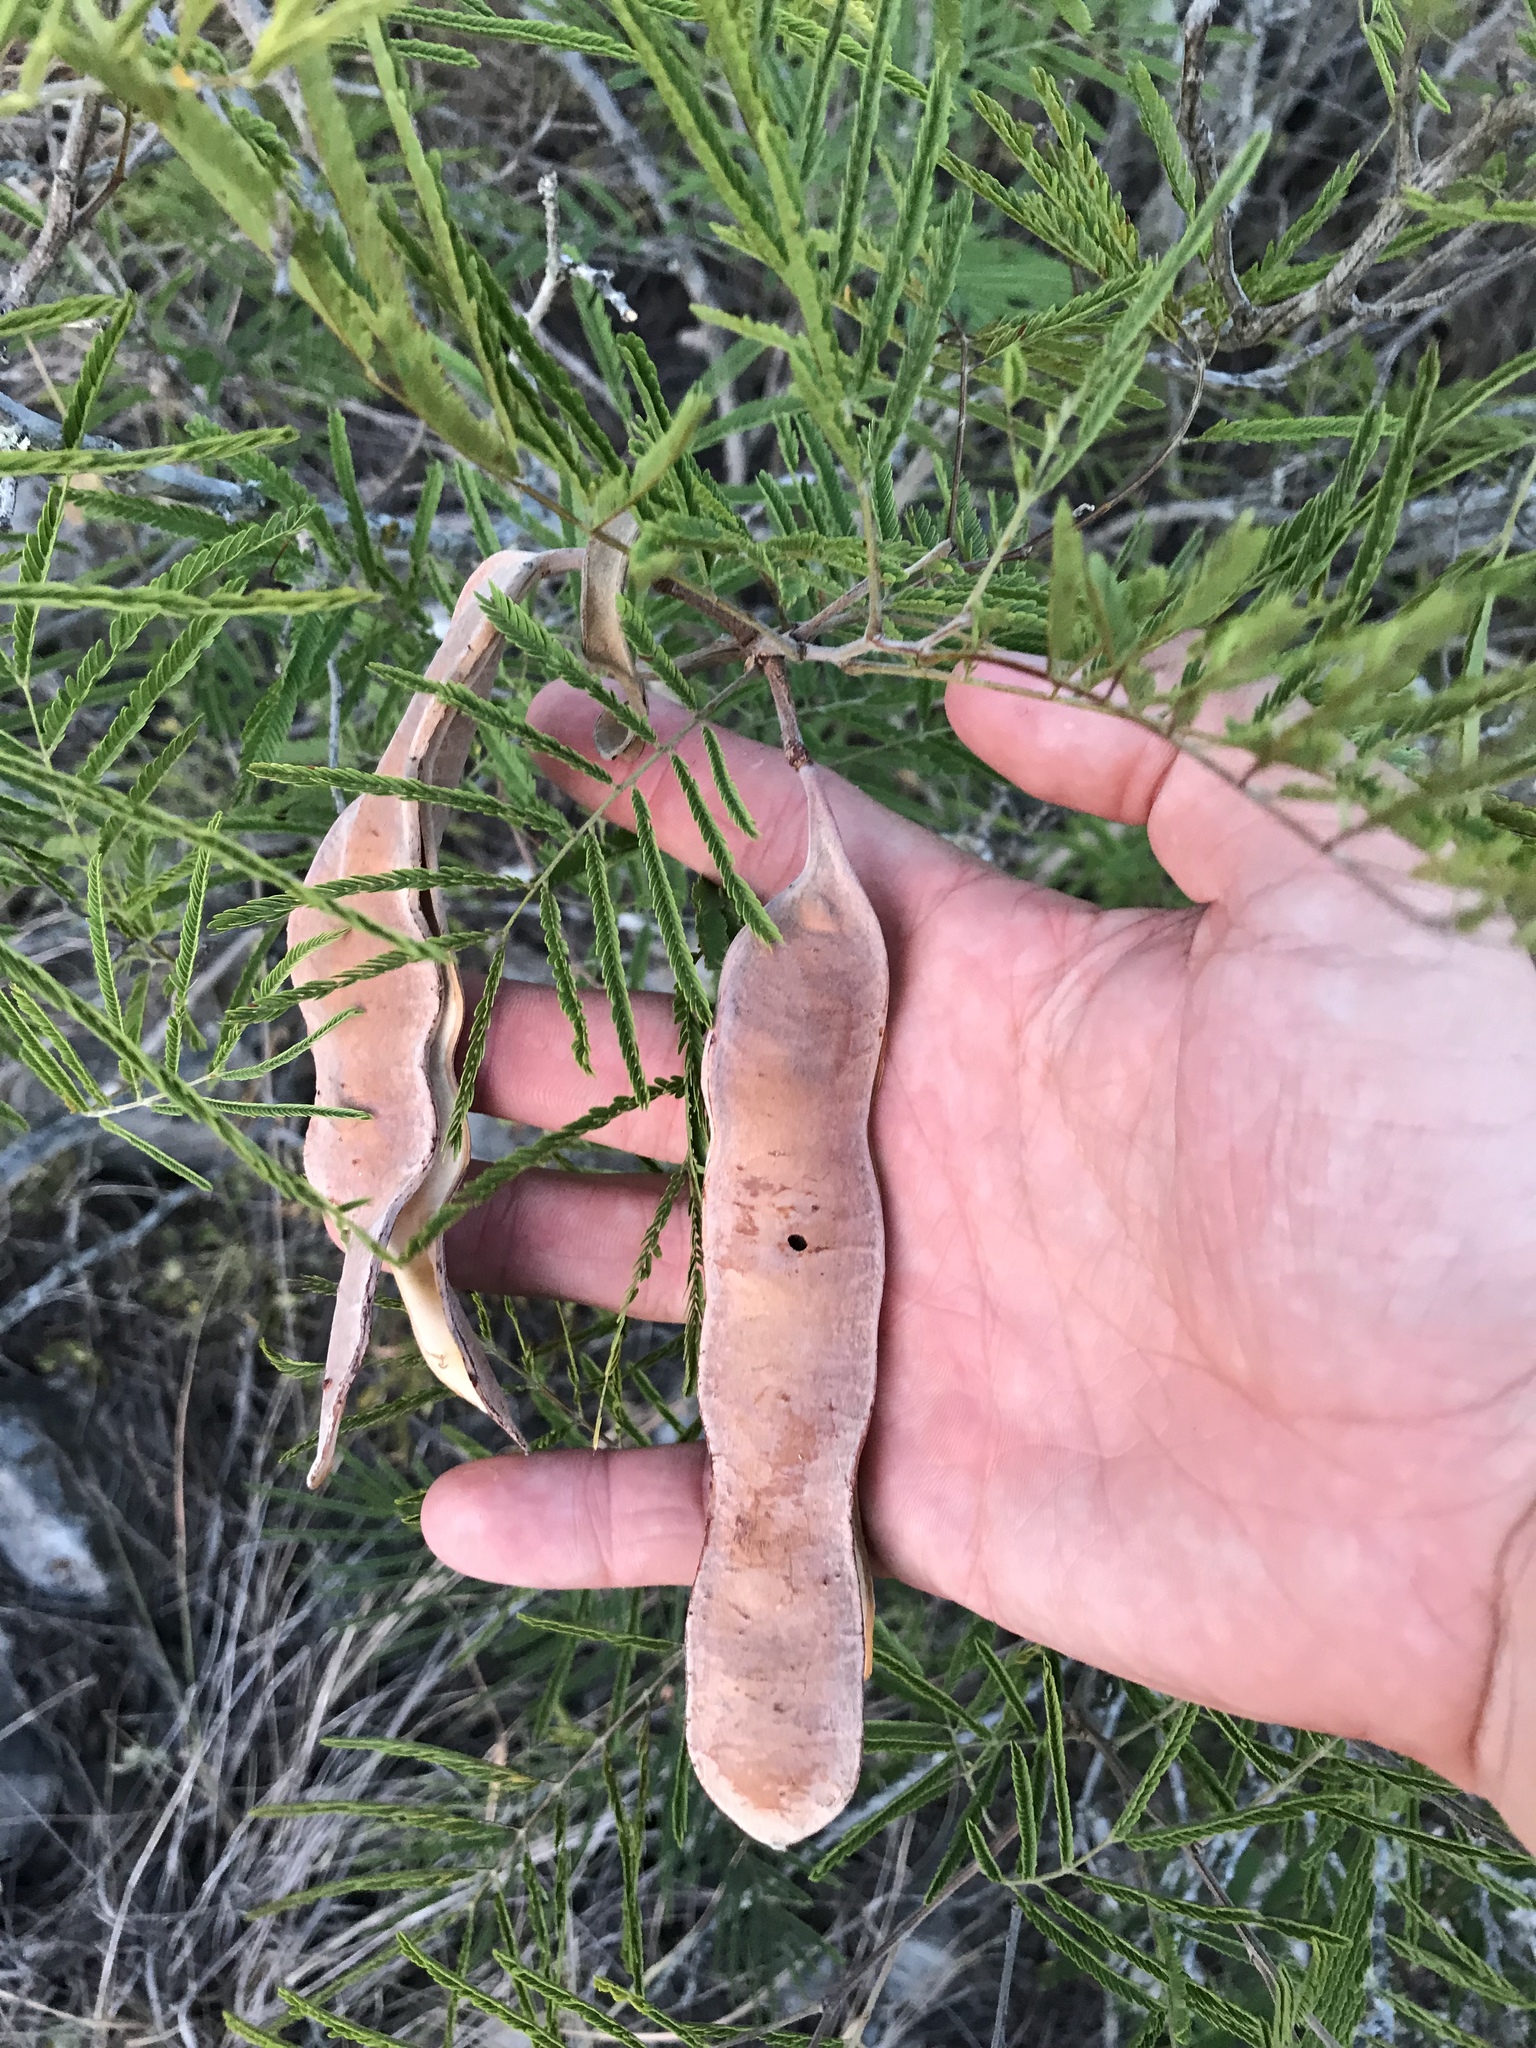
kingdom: Plantae
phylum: Tracheophyta
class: Magnoliopsida
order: Fabales
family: Fabaceae
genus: Senegalia
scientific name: Senegalia berlandieri
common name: Berlandier acacia
